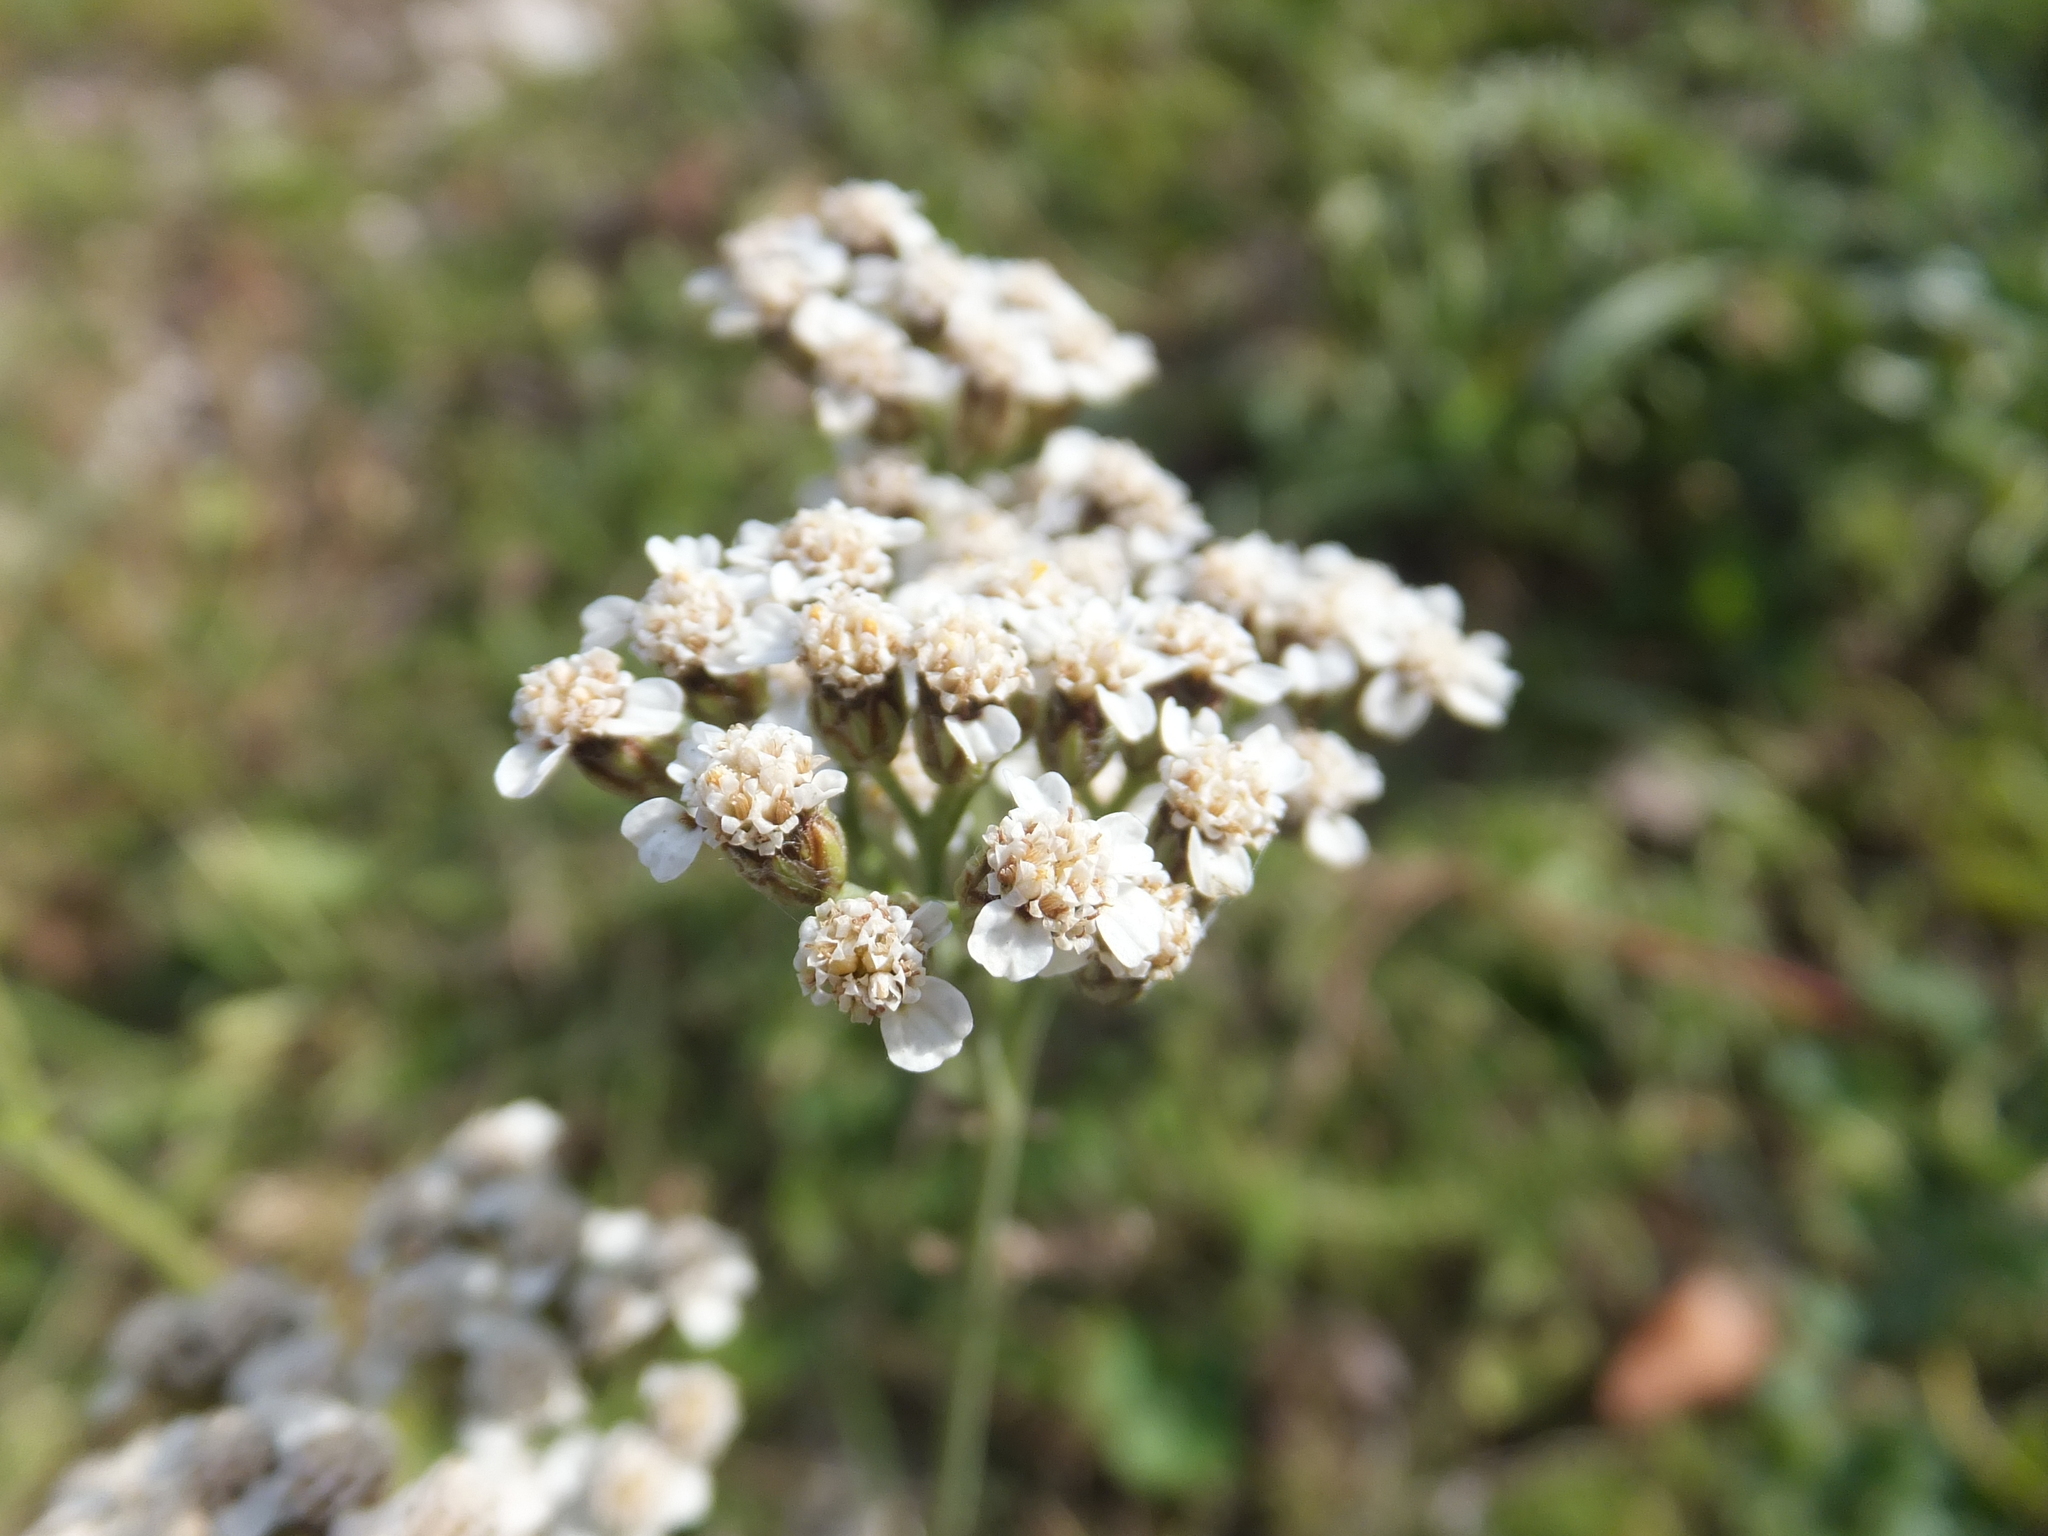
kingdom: Plantae
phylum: Tracheophyta
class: Magnoliopsida
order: Asterales
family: Asteraceae
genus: Achillea
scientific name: Achillea millefolium
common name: Yarrow
